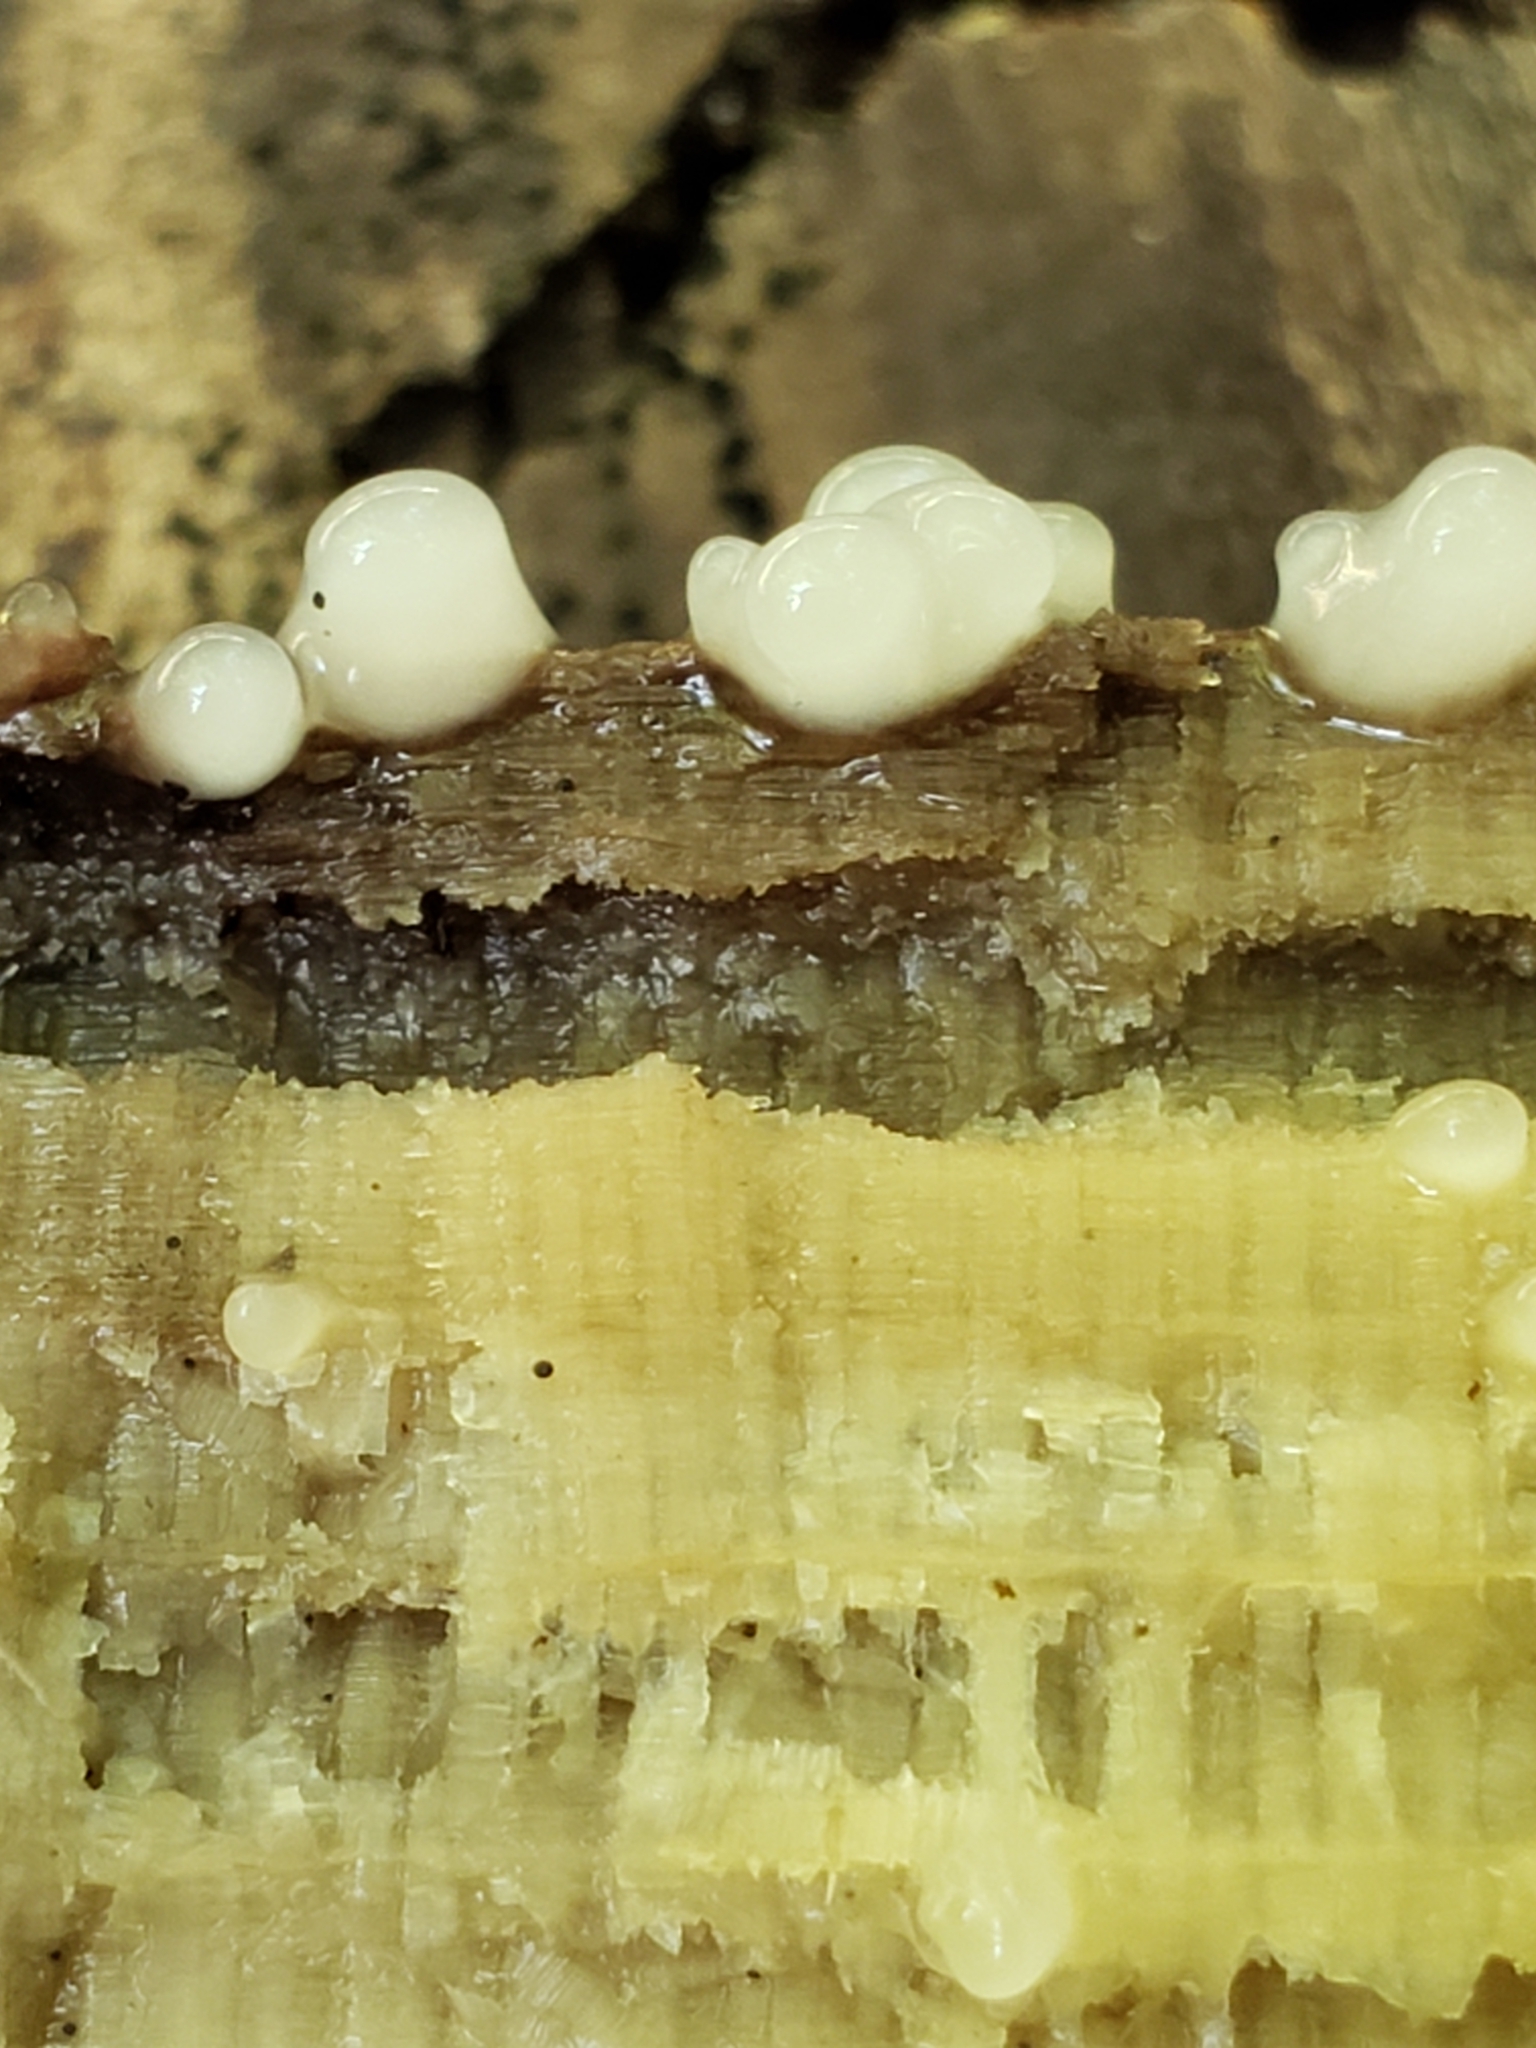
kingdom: Fungi
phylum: Basidiomycota
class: Atractiellomycetes
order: Atractiellales
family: Phleogenaceae
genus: Helicogloea
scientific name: Helicogloea compressa
